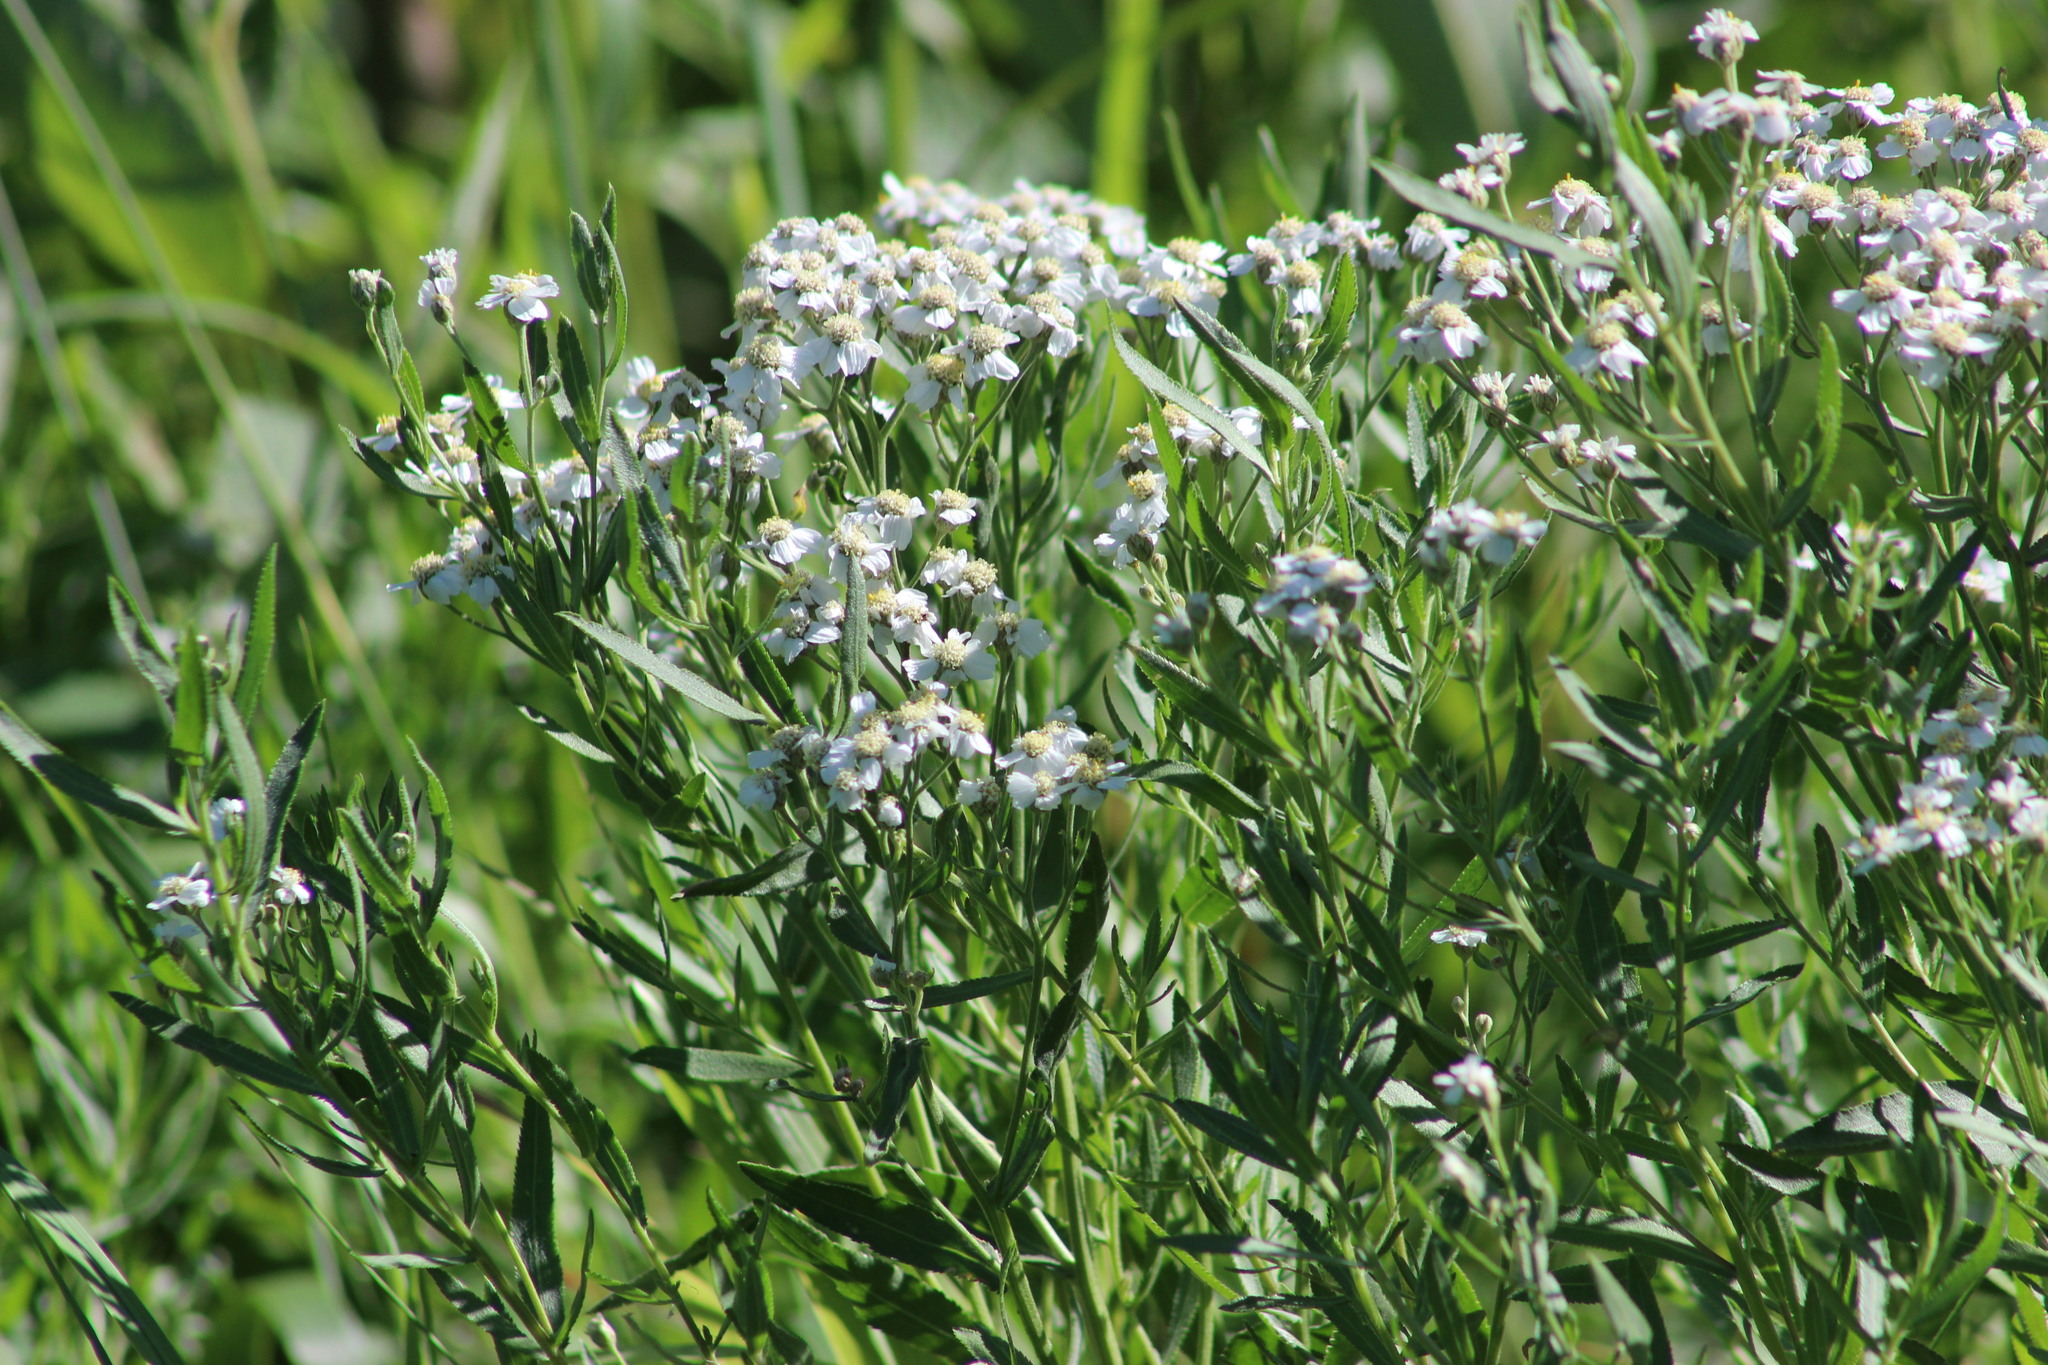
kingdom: Plantae
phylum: Tracheophyta
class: Magnoliopsida
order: Asterales
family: Asteraceae
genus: Achillea
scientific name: Achillea millefolium
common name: Yarrow
